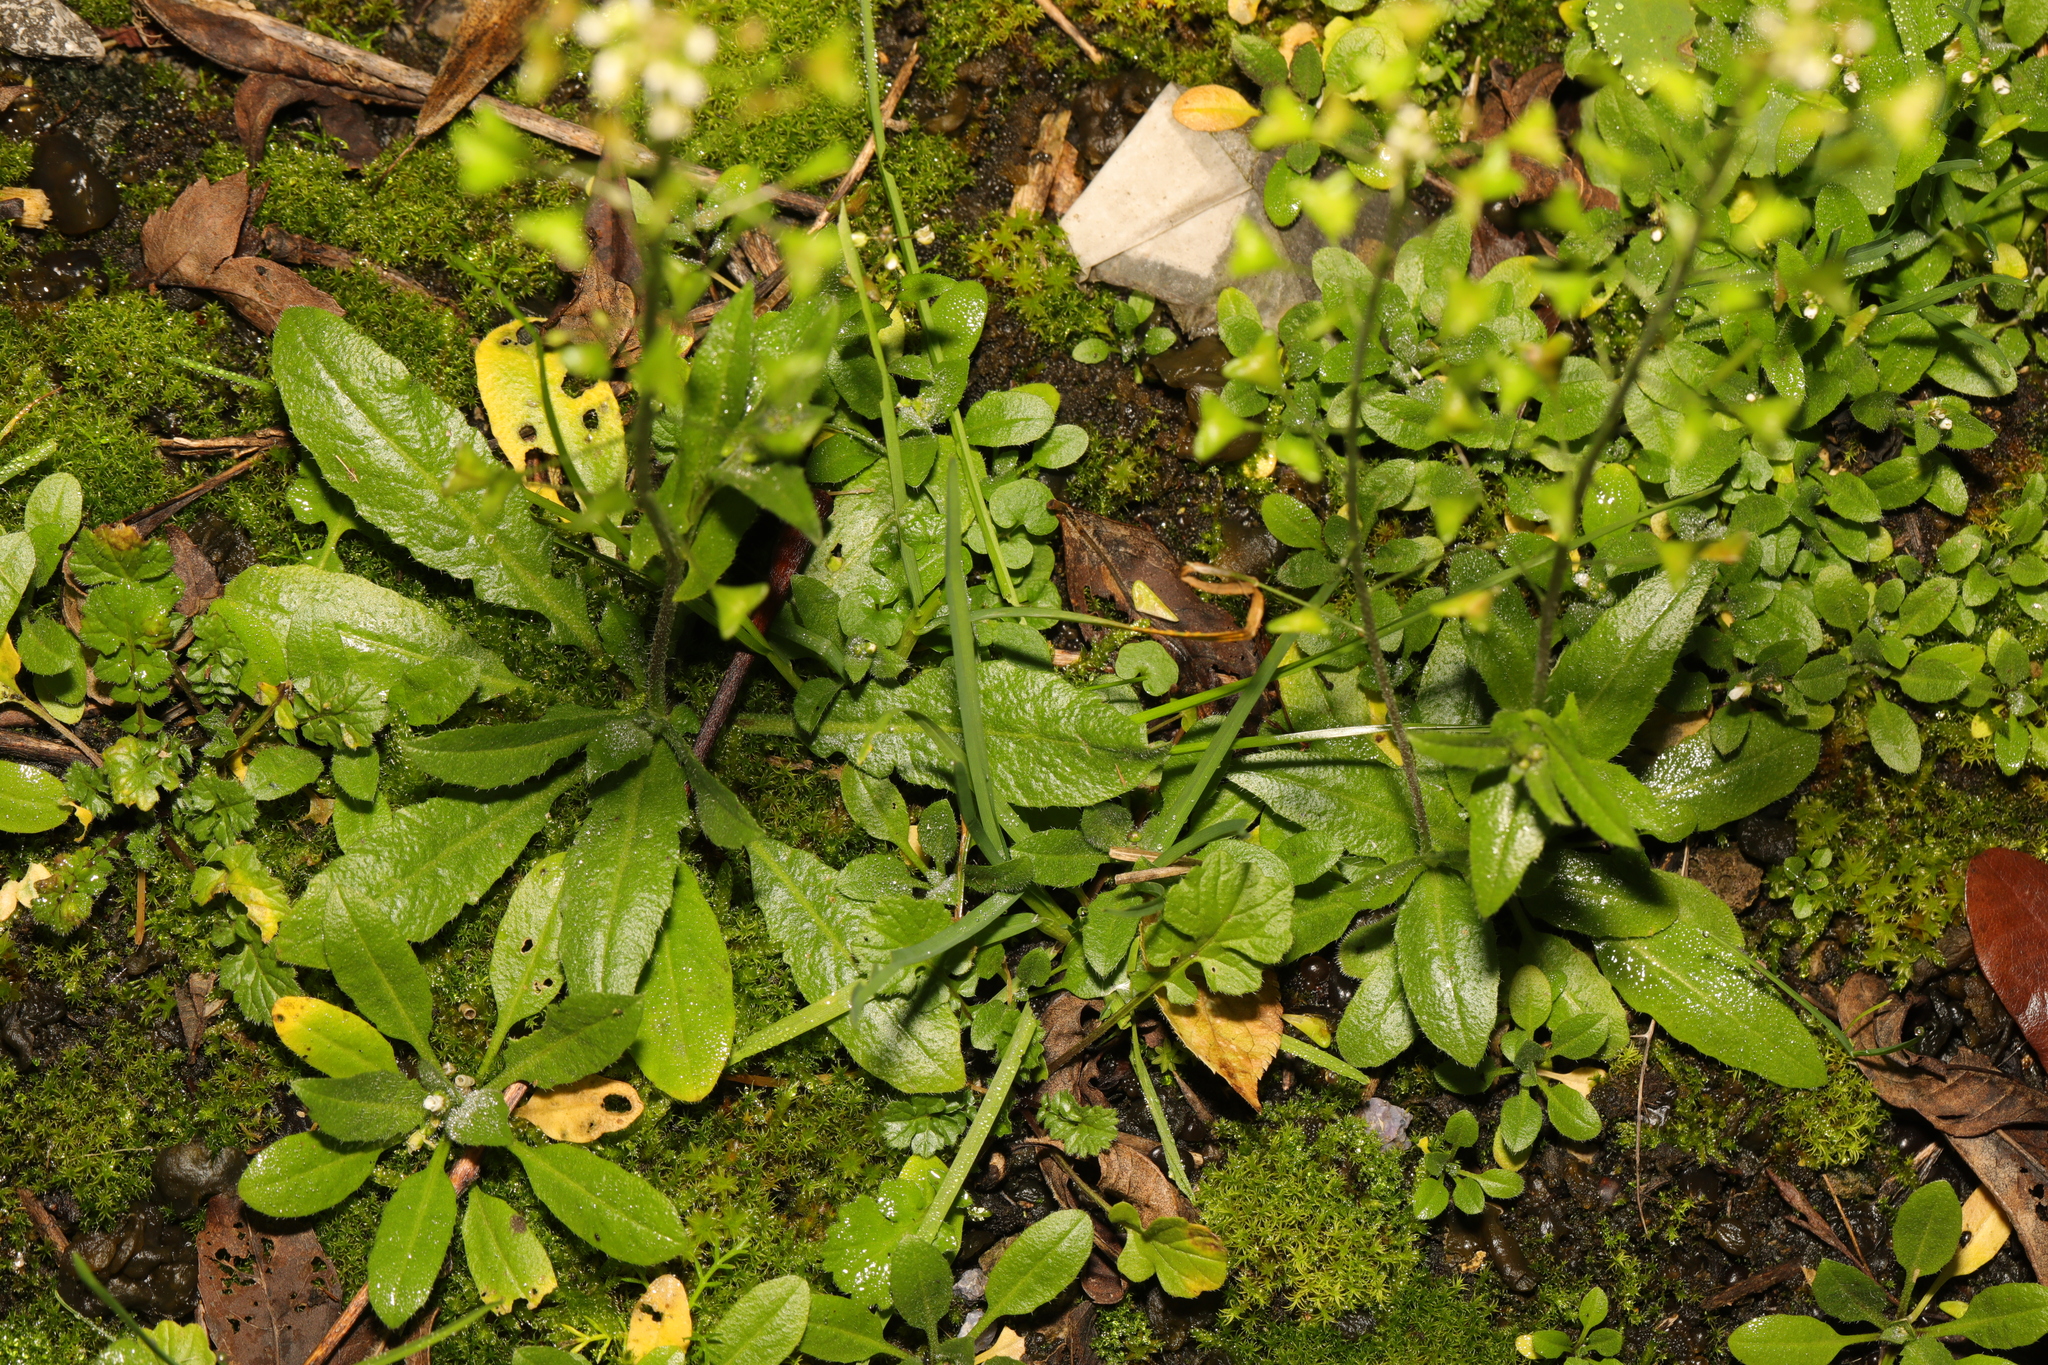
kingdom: Plantae
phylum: Tracheophyta
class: Magnoliopsida
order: Brassicales
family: Brassicaceae
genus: Arabidopsis
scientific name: Arabidopsis thaliana
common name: Thale cress
